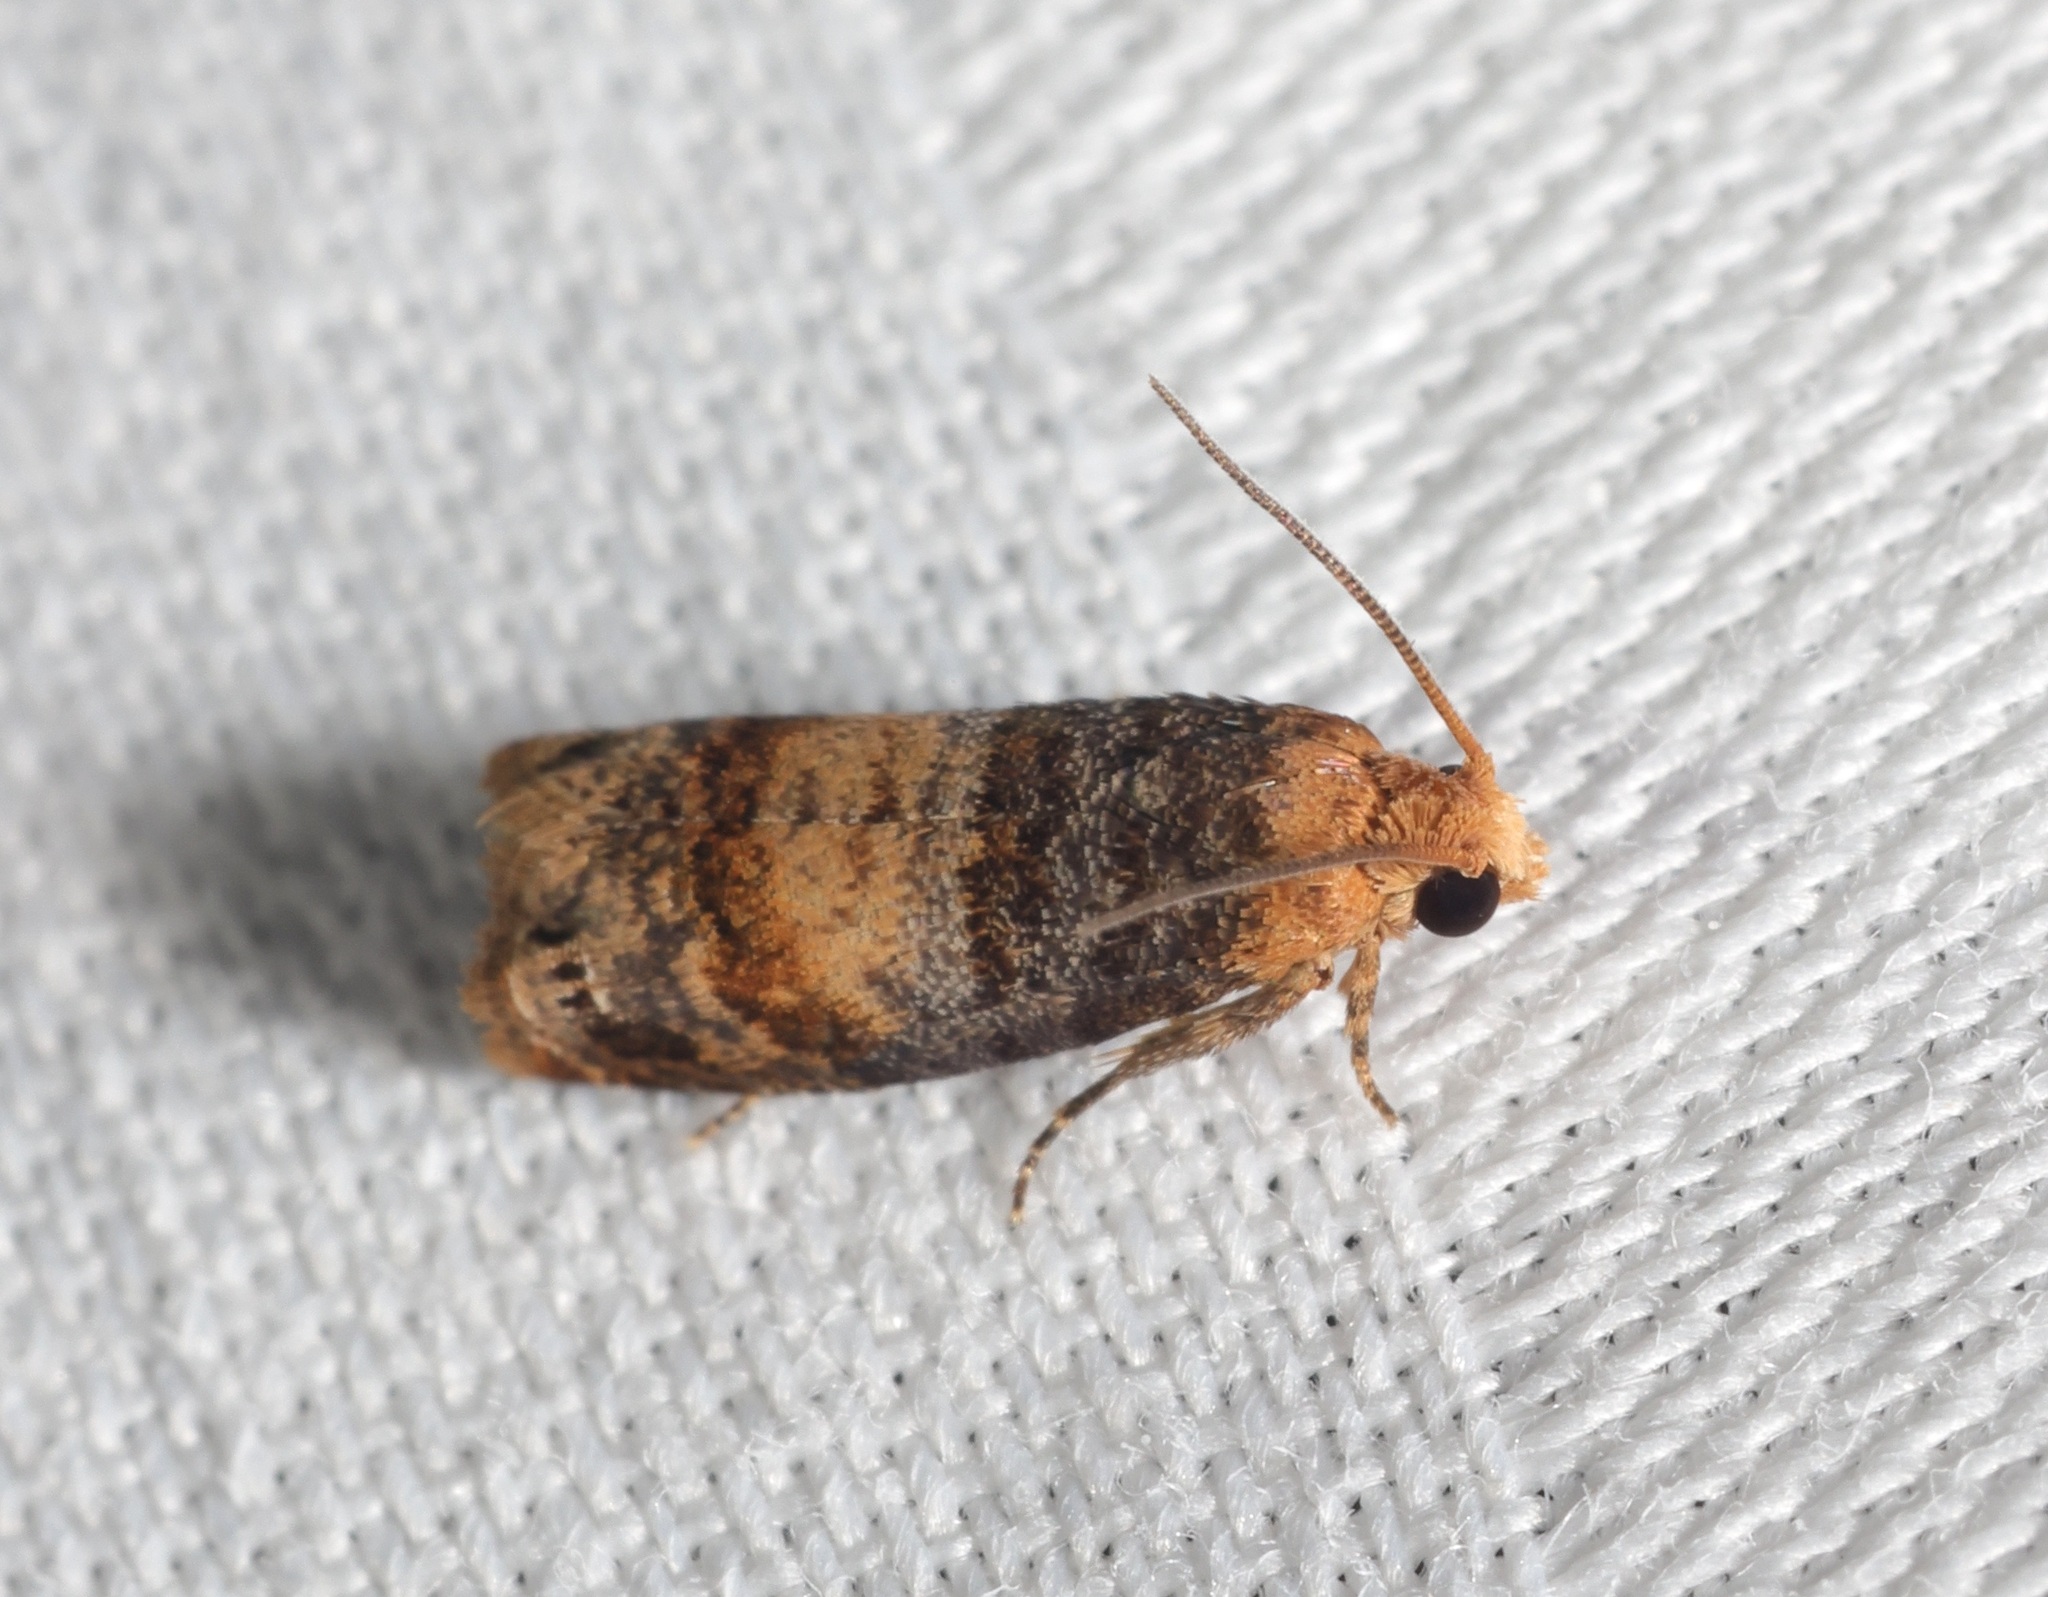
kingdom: Animalia
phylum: Arthropoda
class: Insecta
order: Lepidoptera
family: Tortricidae
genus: Lepteucosma
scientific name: Lepteucosma fuscicaput
